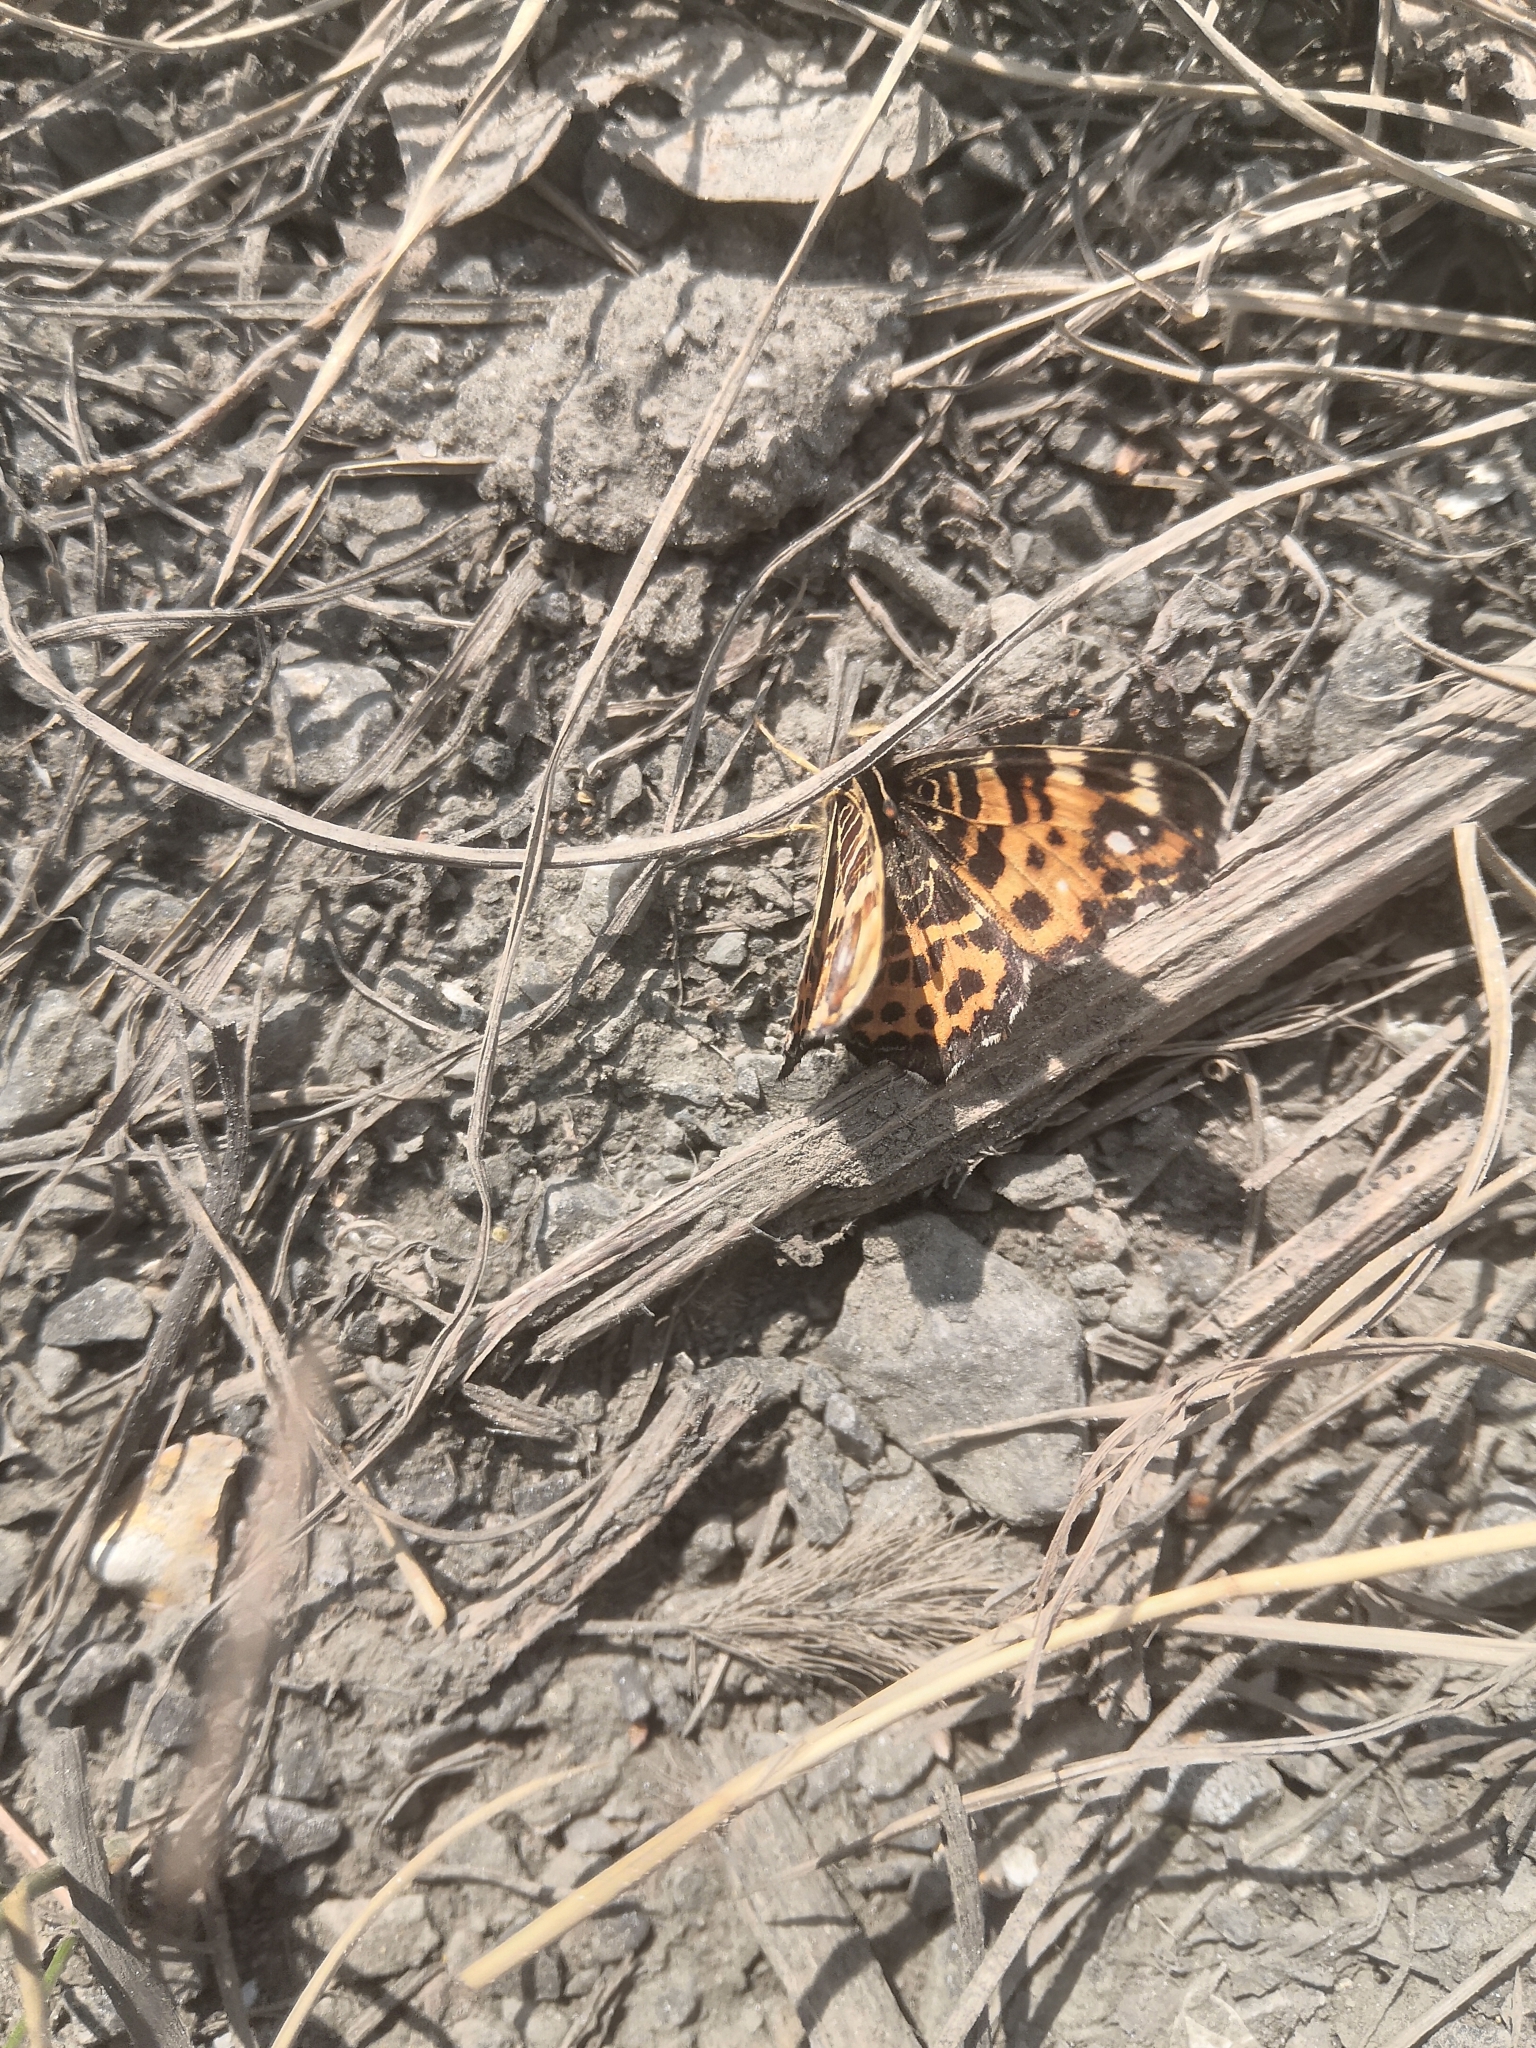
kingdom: Animalia
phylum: Arthropoda
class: Insecta
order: Lepidoptera
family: Nymphalidae
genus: Araschnia
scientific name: Araschnia levana
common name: Map butterfly
